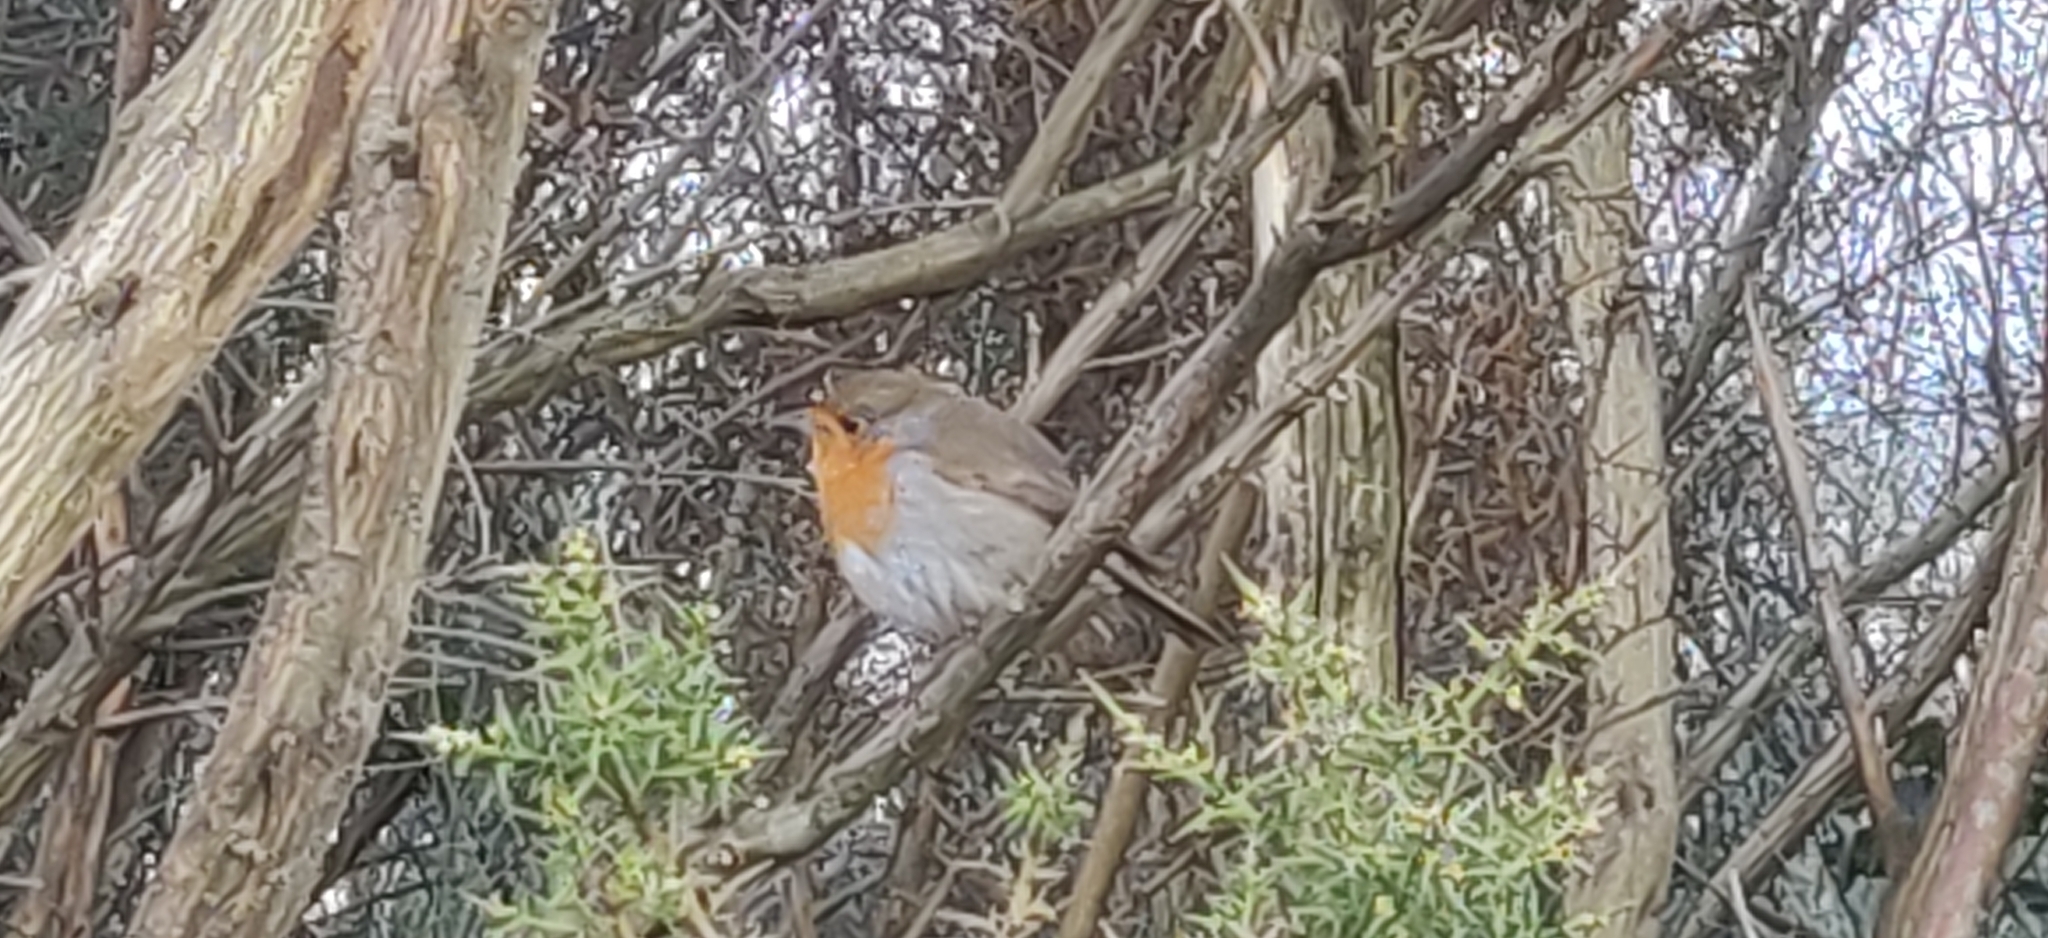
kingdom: Animalia
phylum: Chordata
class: Aves
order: Passeriformes
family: Muscicapidae
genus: Erithacus
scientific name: Erithacus rubecula
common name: European robin
